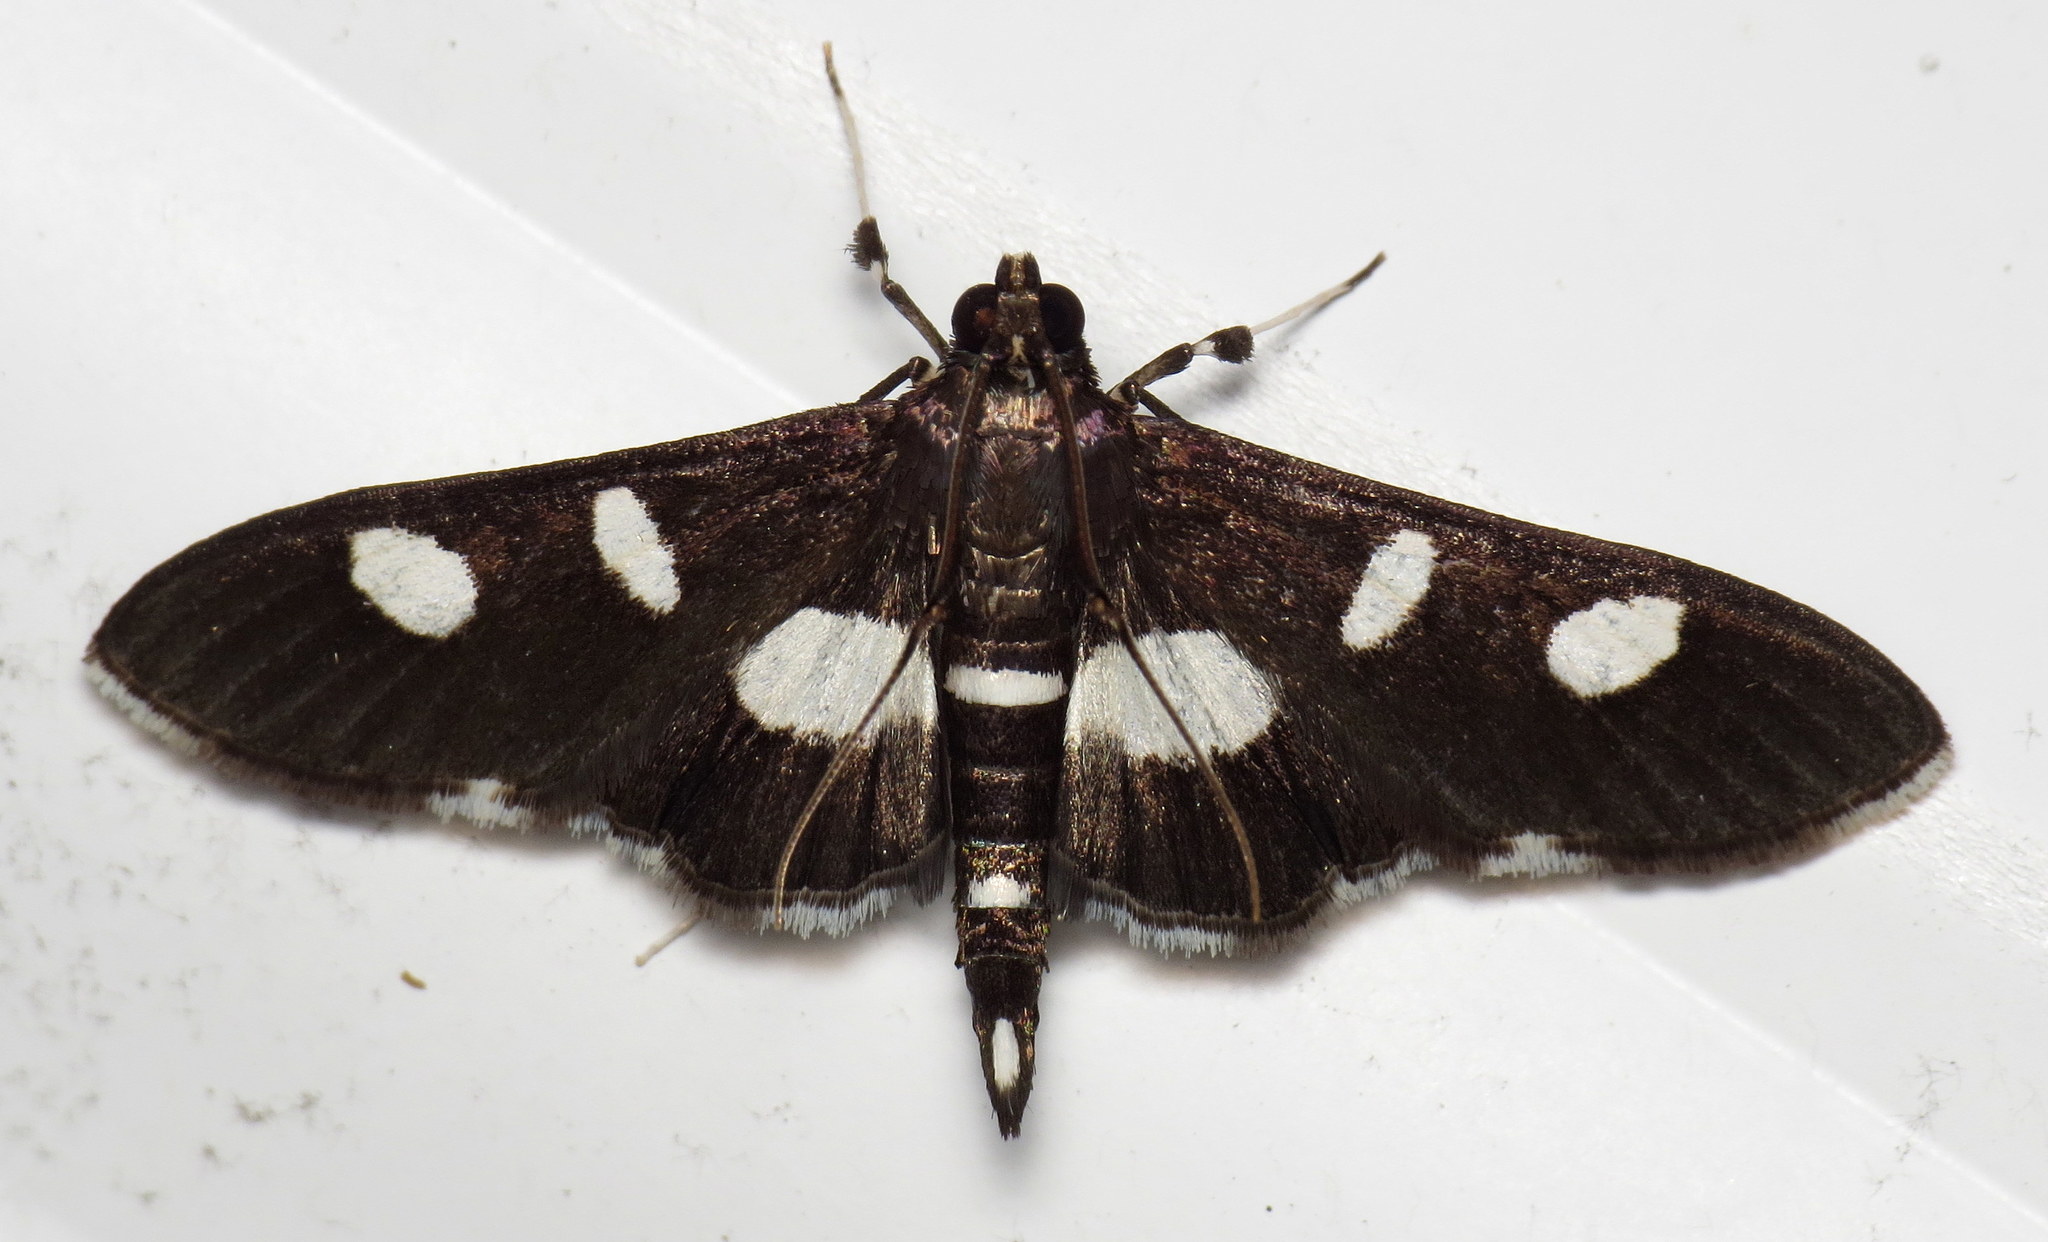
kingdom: Animalia
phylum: Arthropoda
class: Insecta
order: Lepidoptera
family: Crambidae
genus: Desmia
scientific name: Desmia funeralis
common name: Grape leaf folder moth
